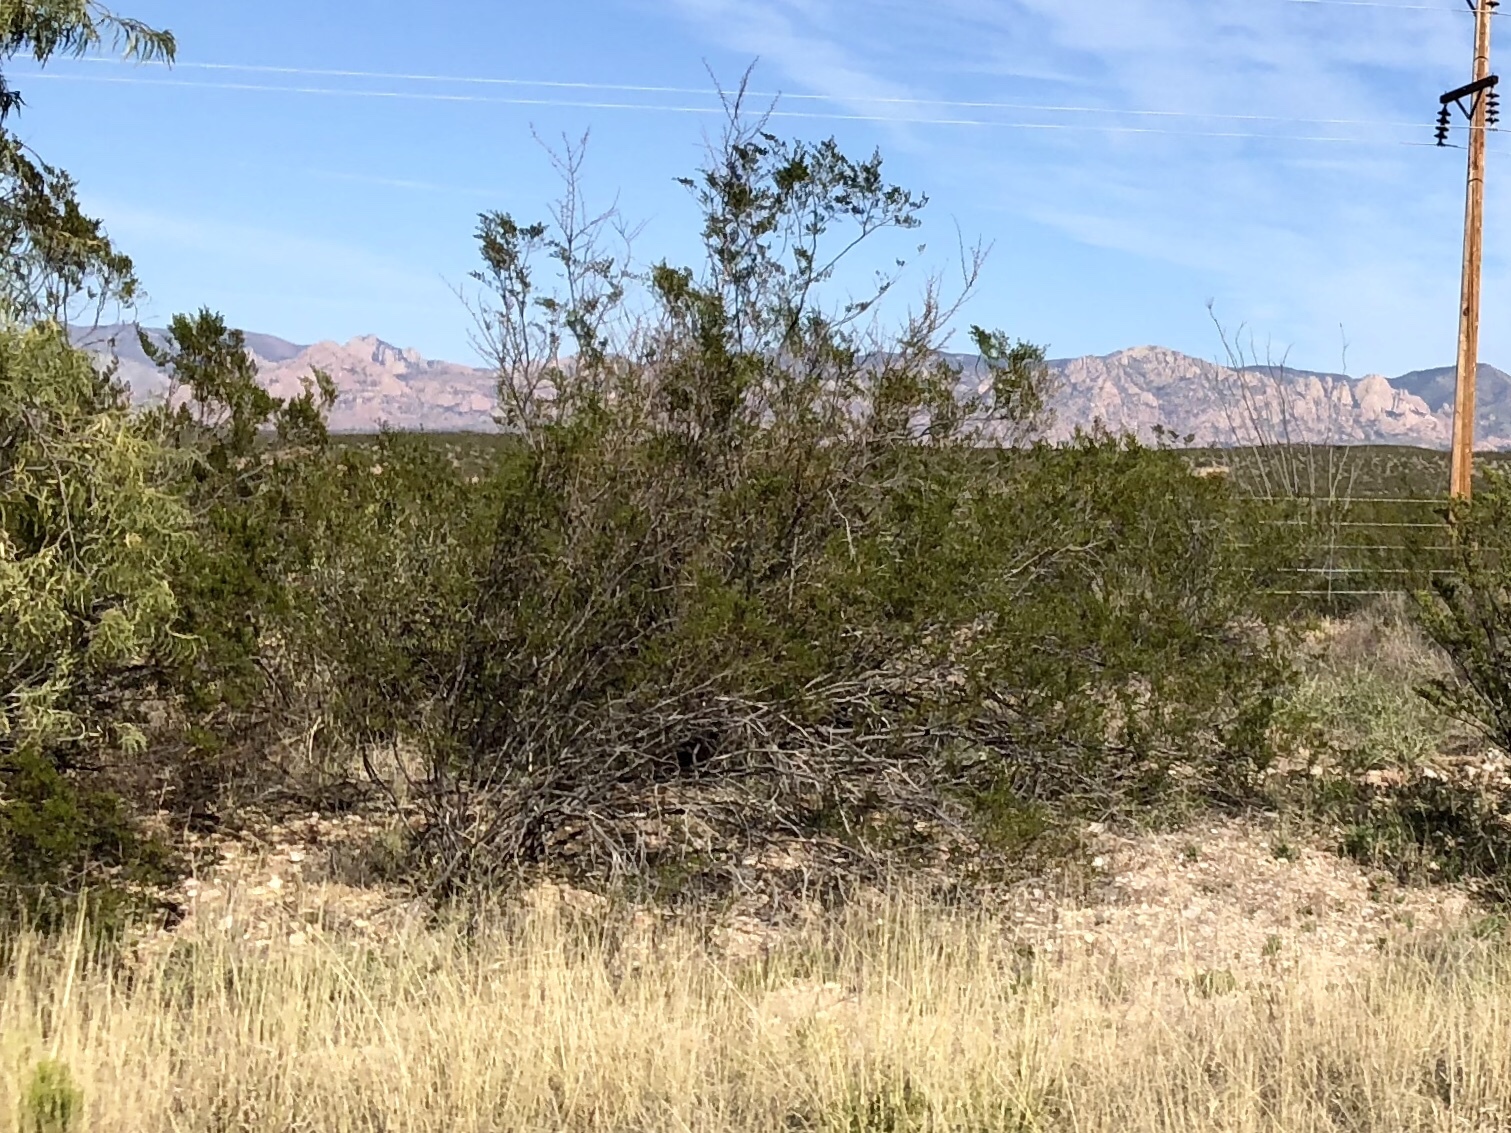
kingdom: Plantae
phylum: Tracheophyta
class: Magnoliopsida
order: Zygophyllales
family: Zygophyllaceae
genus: Larrea
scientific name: Larrea tridentata
